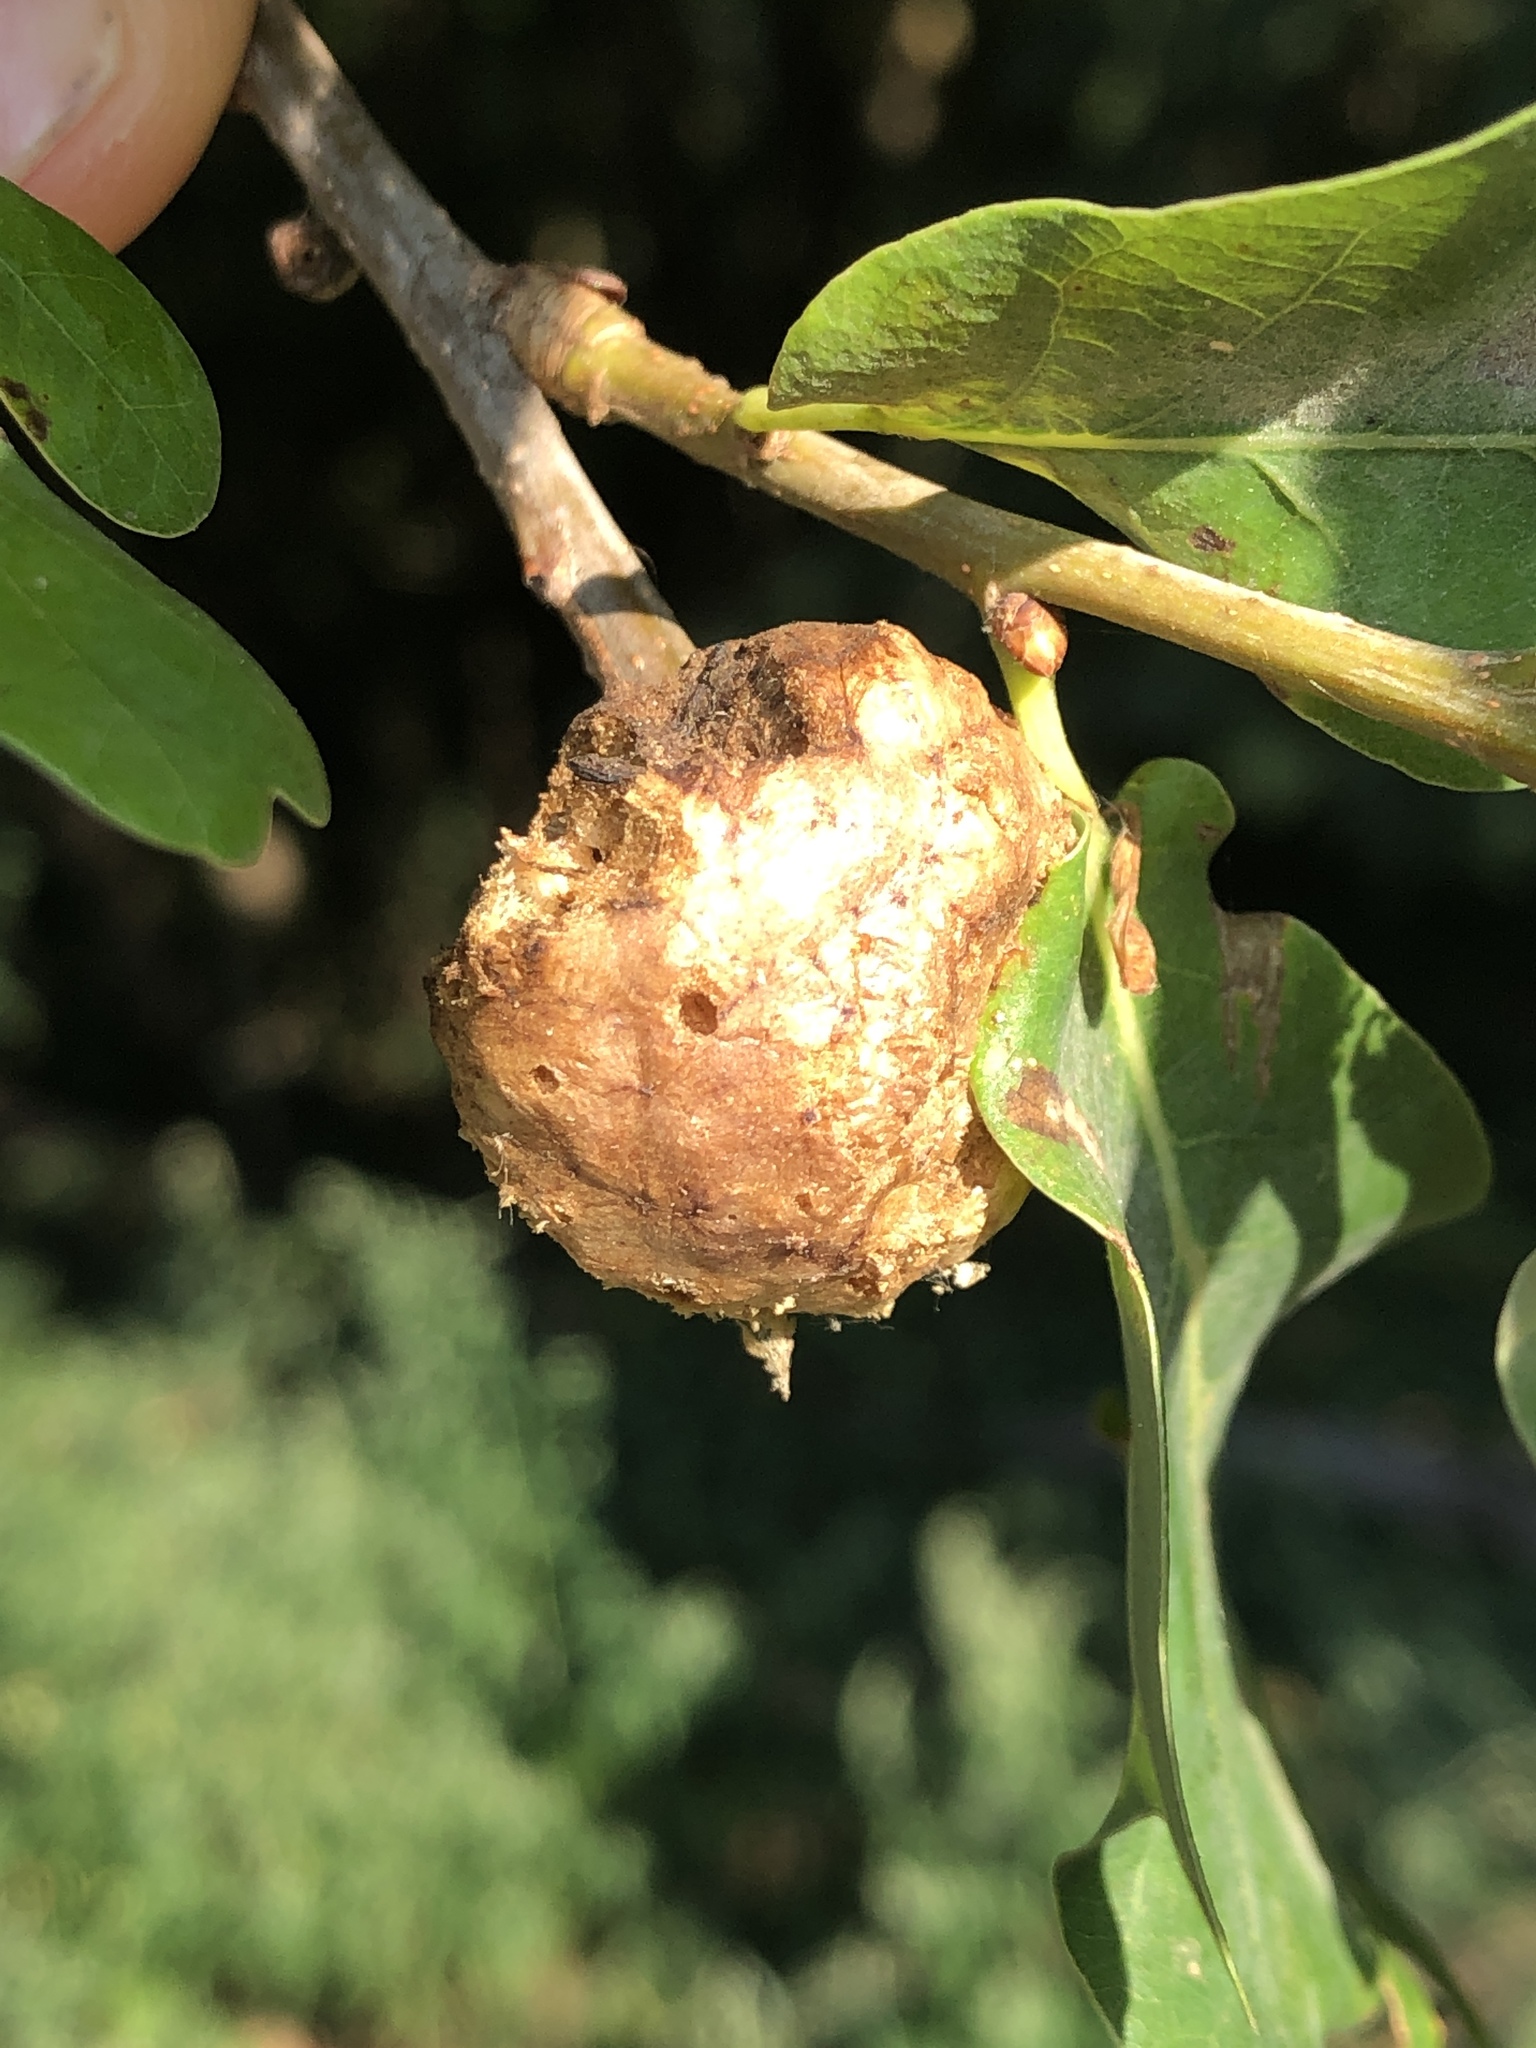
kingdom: Animalia
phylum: Arthropoda
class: Insecta
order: Hymenoptera
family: Cynipidae
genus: Biorhiza
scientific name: Biorhiza pallida
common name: Oak apple
